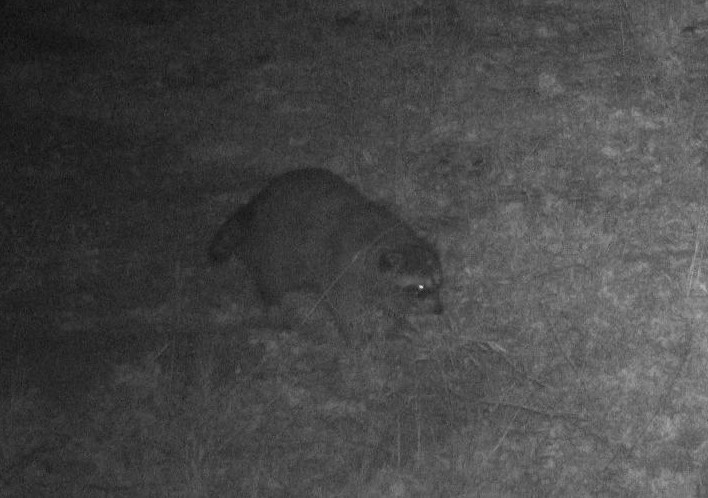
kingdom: Animalia
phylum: Chordata
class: Mammalia
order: Carnivora
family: Procyonidae
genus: Procyon
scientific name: Procyon lotor
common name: Raccoon
